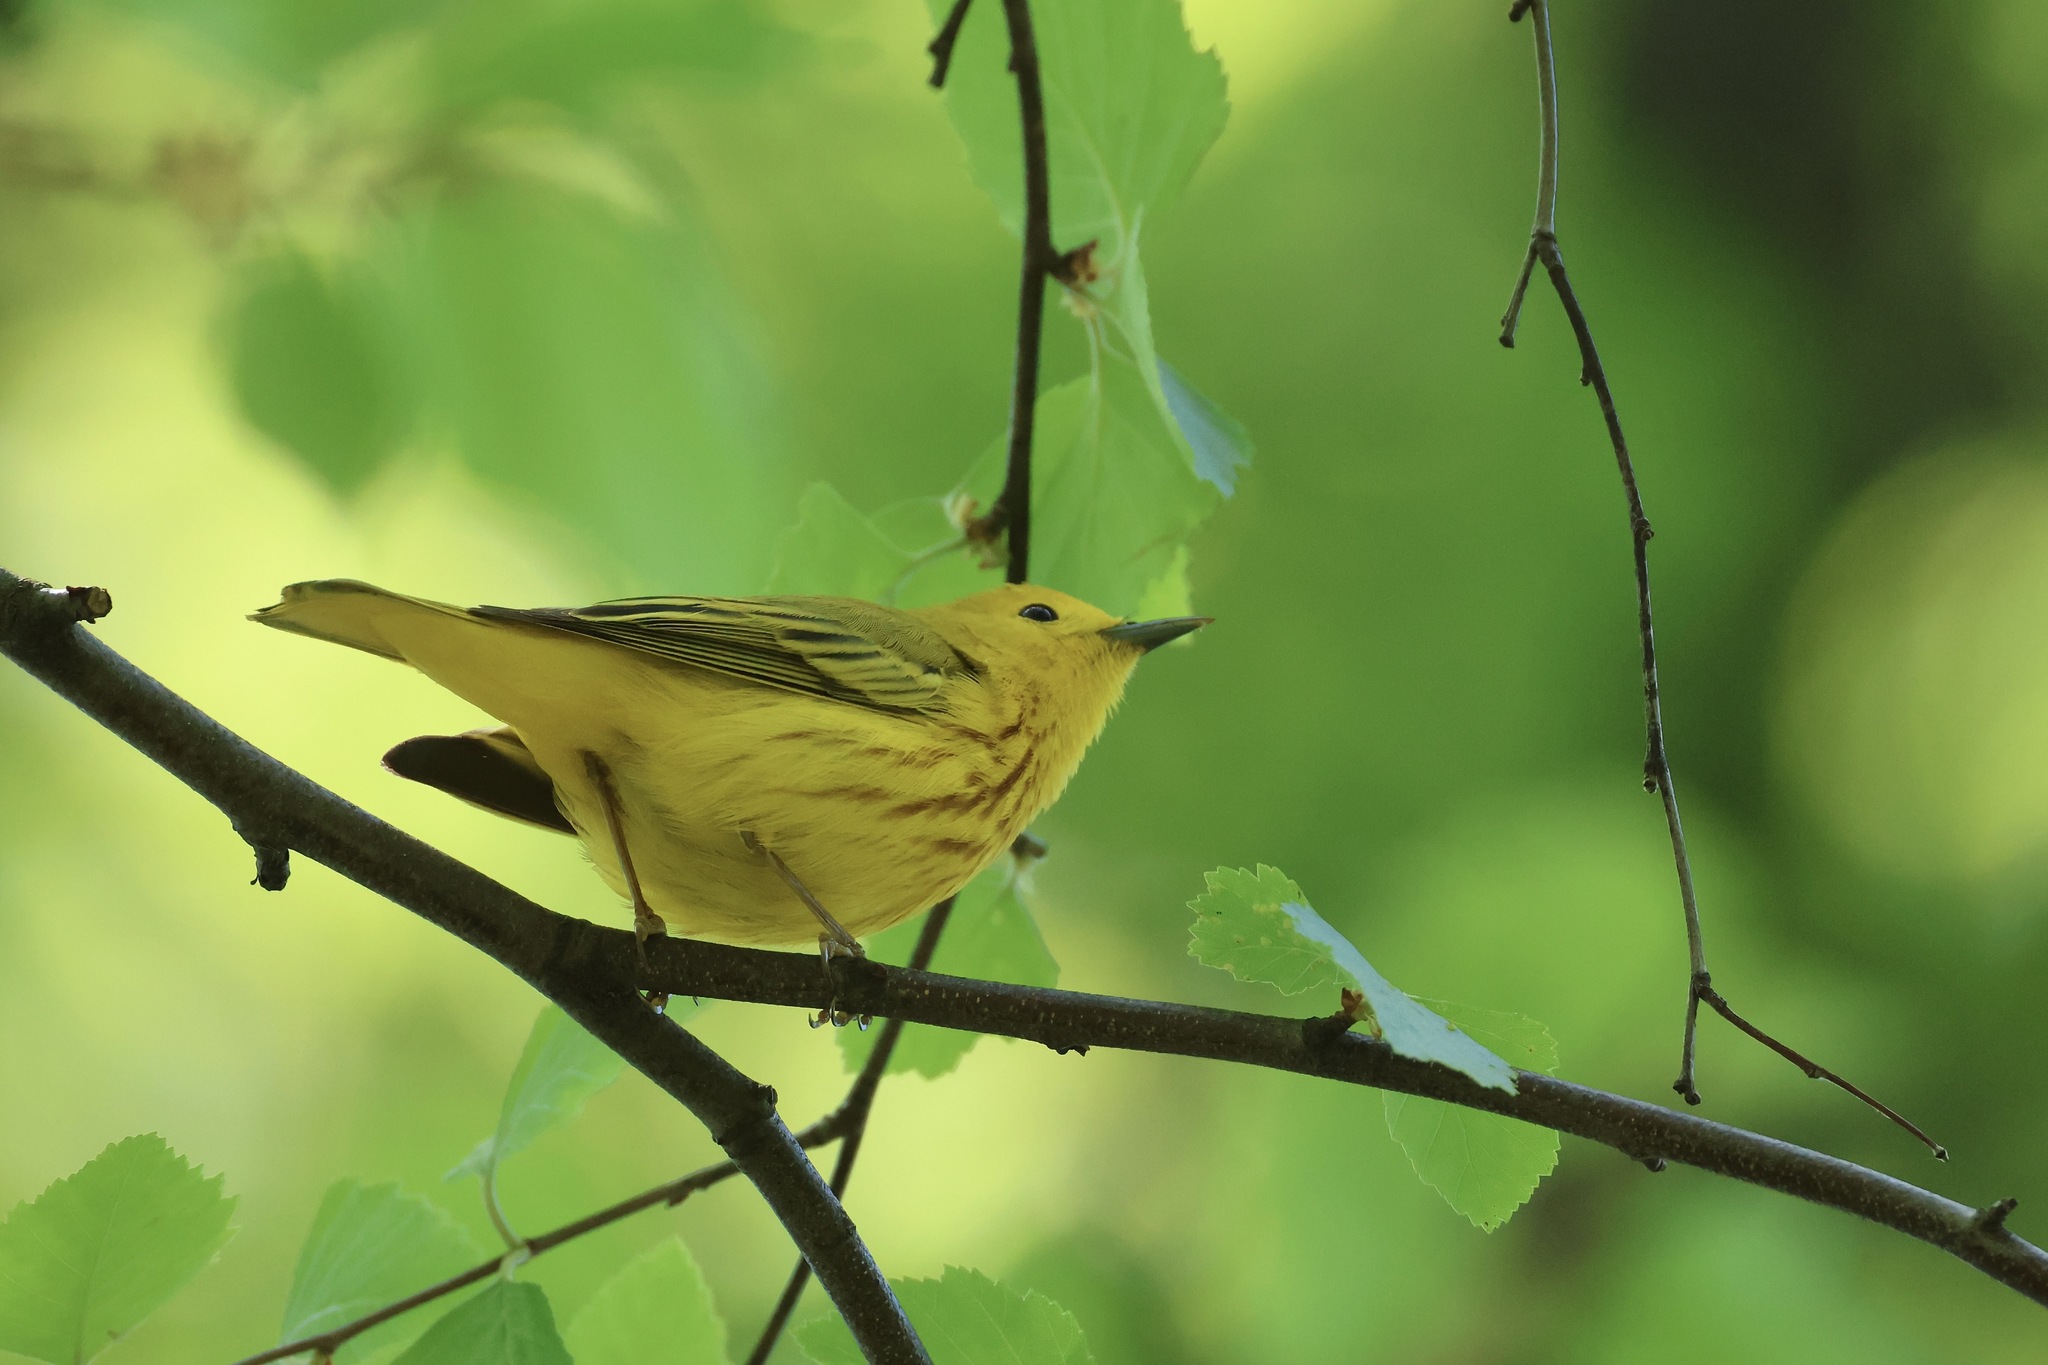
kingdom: Animalia
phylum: Chordata
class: Aves
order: Passeriformes
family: Parulidae
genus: Setophaga
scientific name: Setophaga petechia
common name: Yellow warbler
